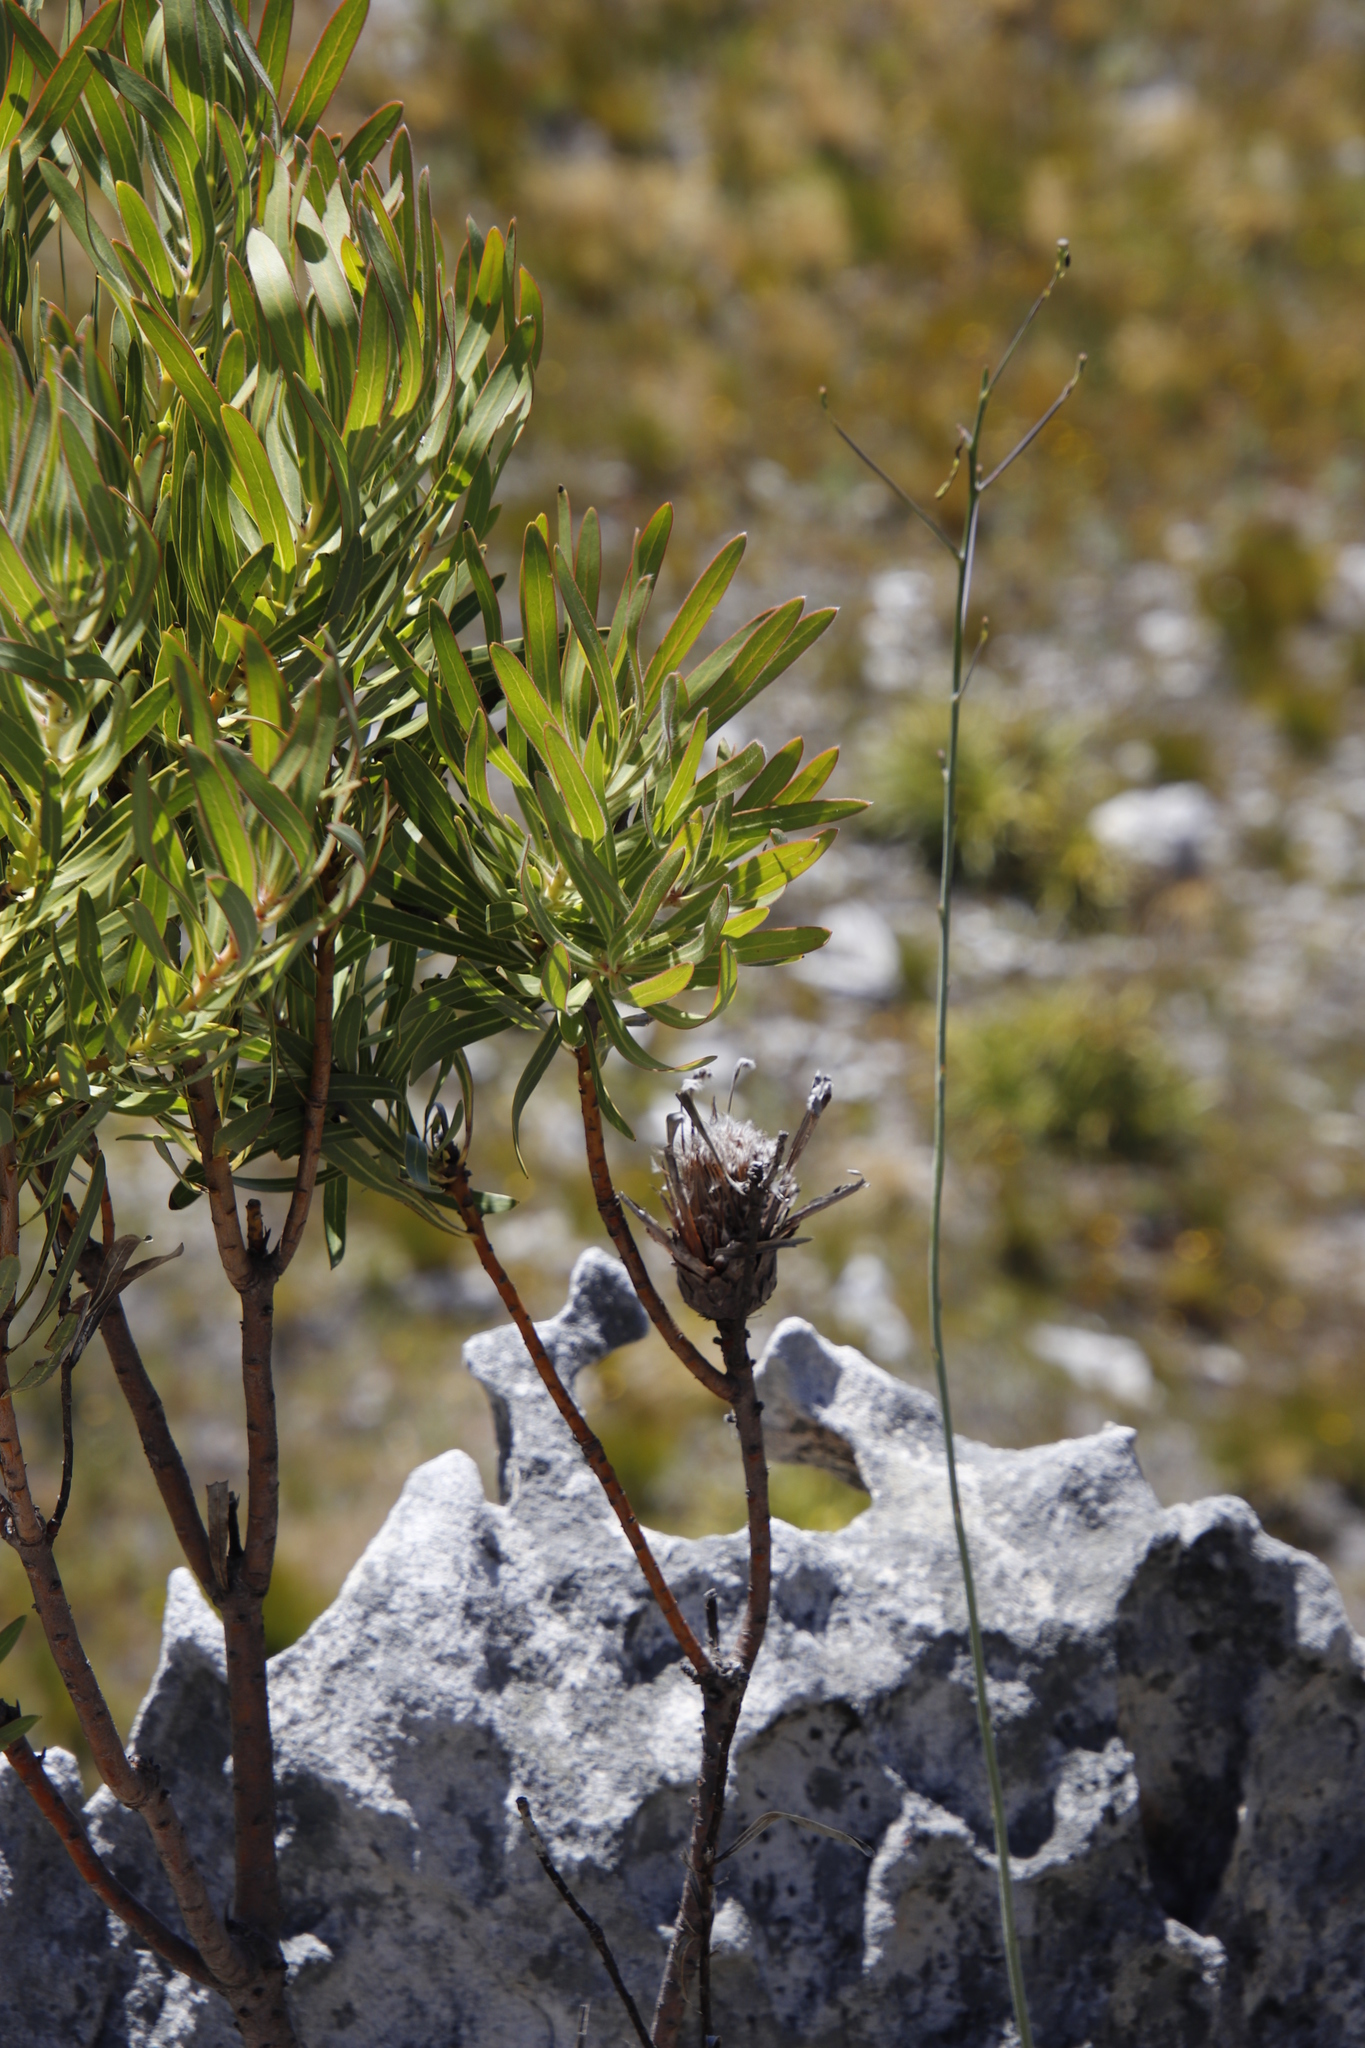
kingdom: Plantae
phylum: Tracheophyta
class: Magnoliopsida
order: Proteales
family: Proteaceae
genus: Protea
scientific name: Protea lepidocarpodendron
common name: Black-bearded protea
